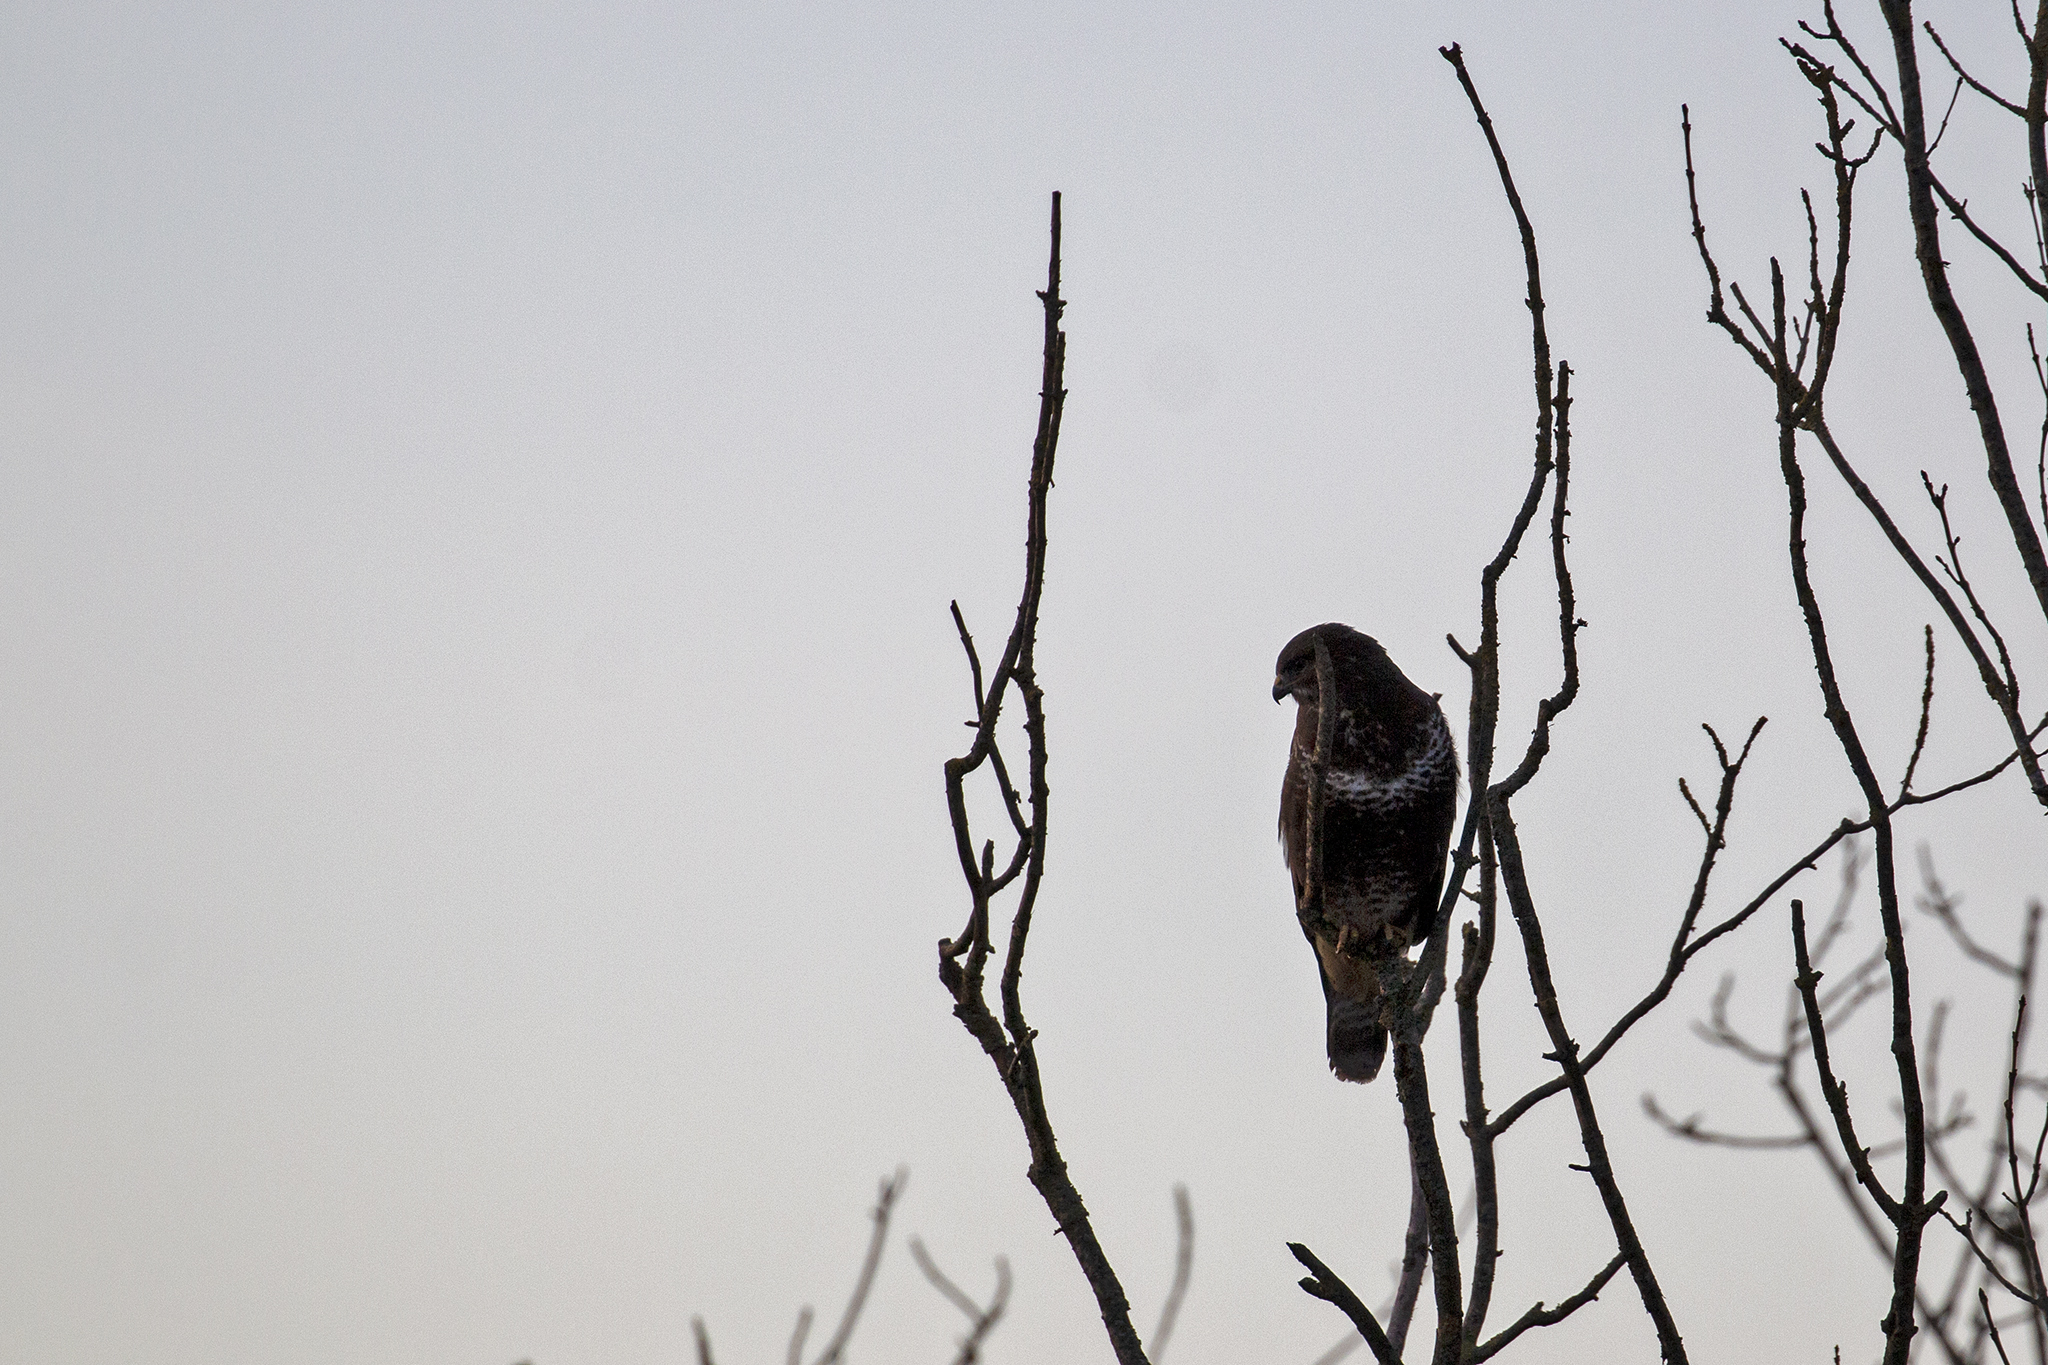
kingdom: Animalia
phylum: Chordata
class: Aves
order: Accipitriformes
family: Accipitridae
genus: Buteo
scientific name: Buteo buteo
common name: Common buzzard
